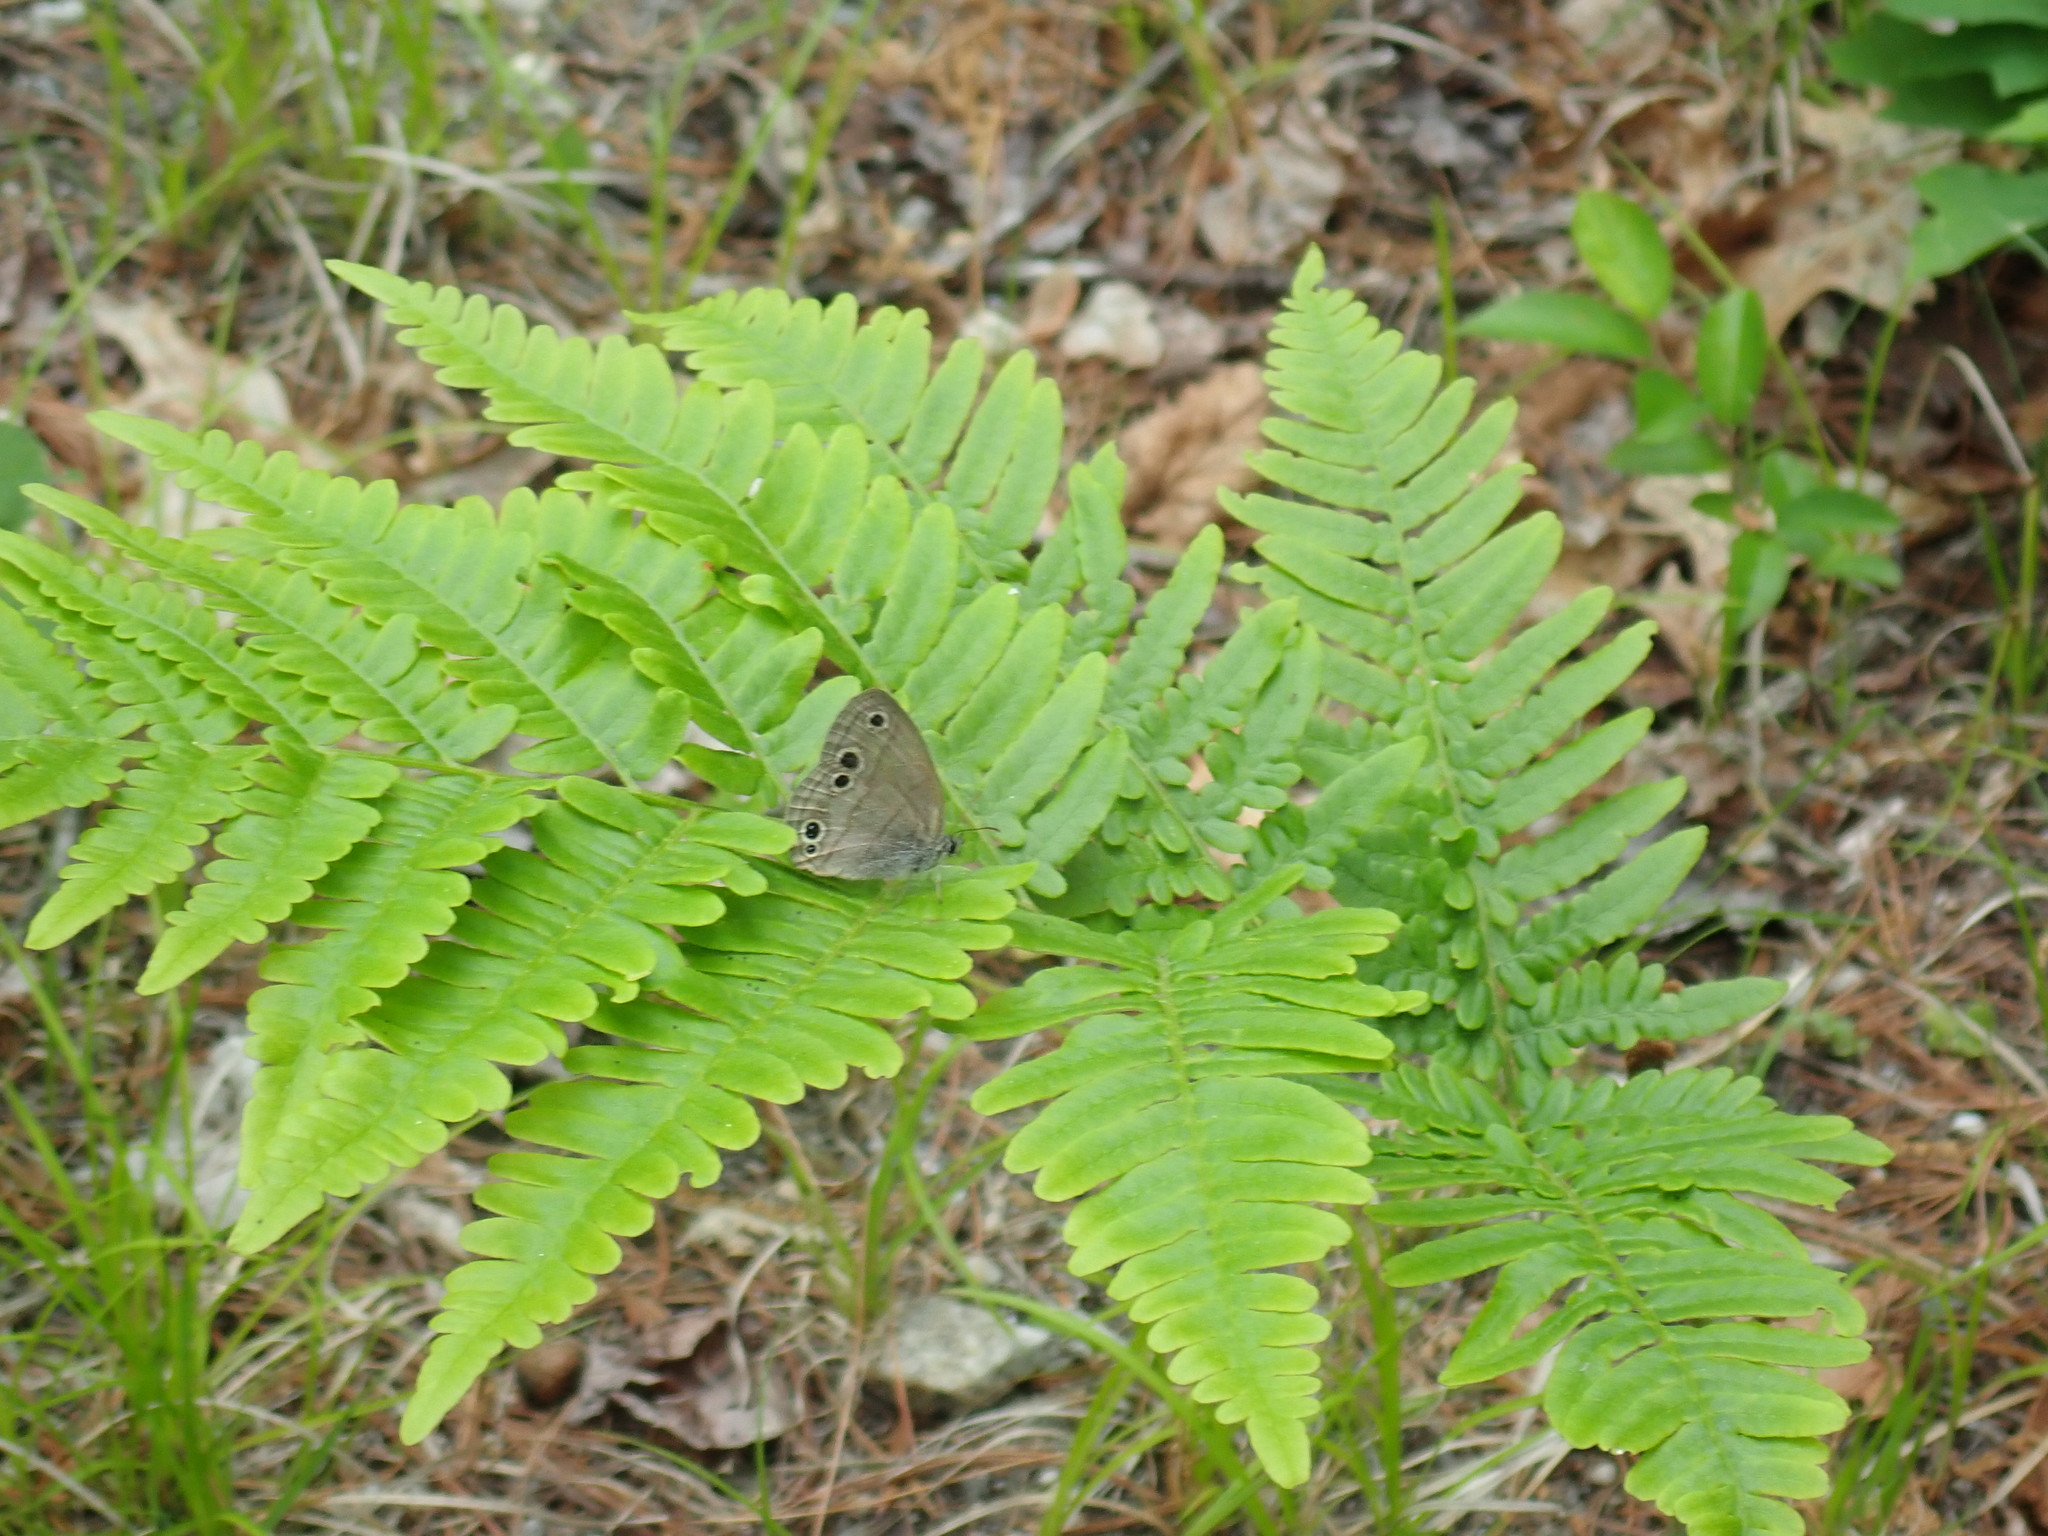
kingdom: Animalia
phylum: Arthropoda
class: Insecta
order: Lepidoptera
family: Nymphalidae
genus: Euptychia
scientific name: Euptychia cymela
